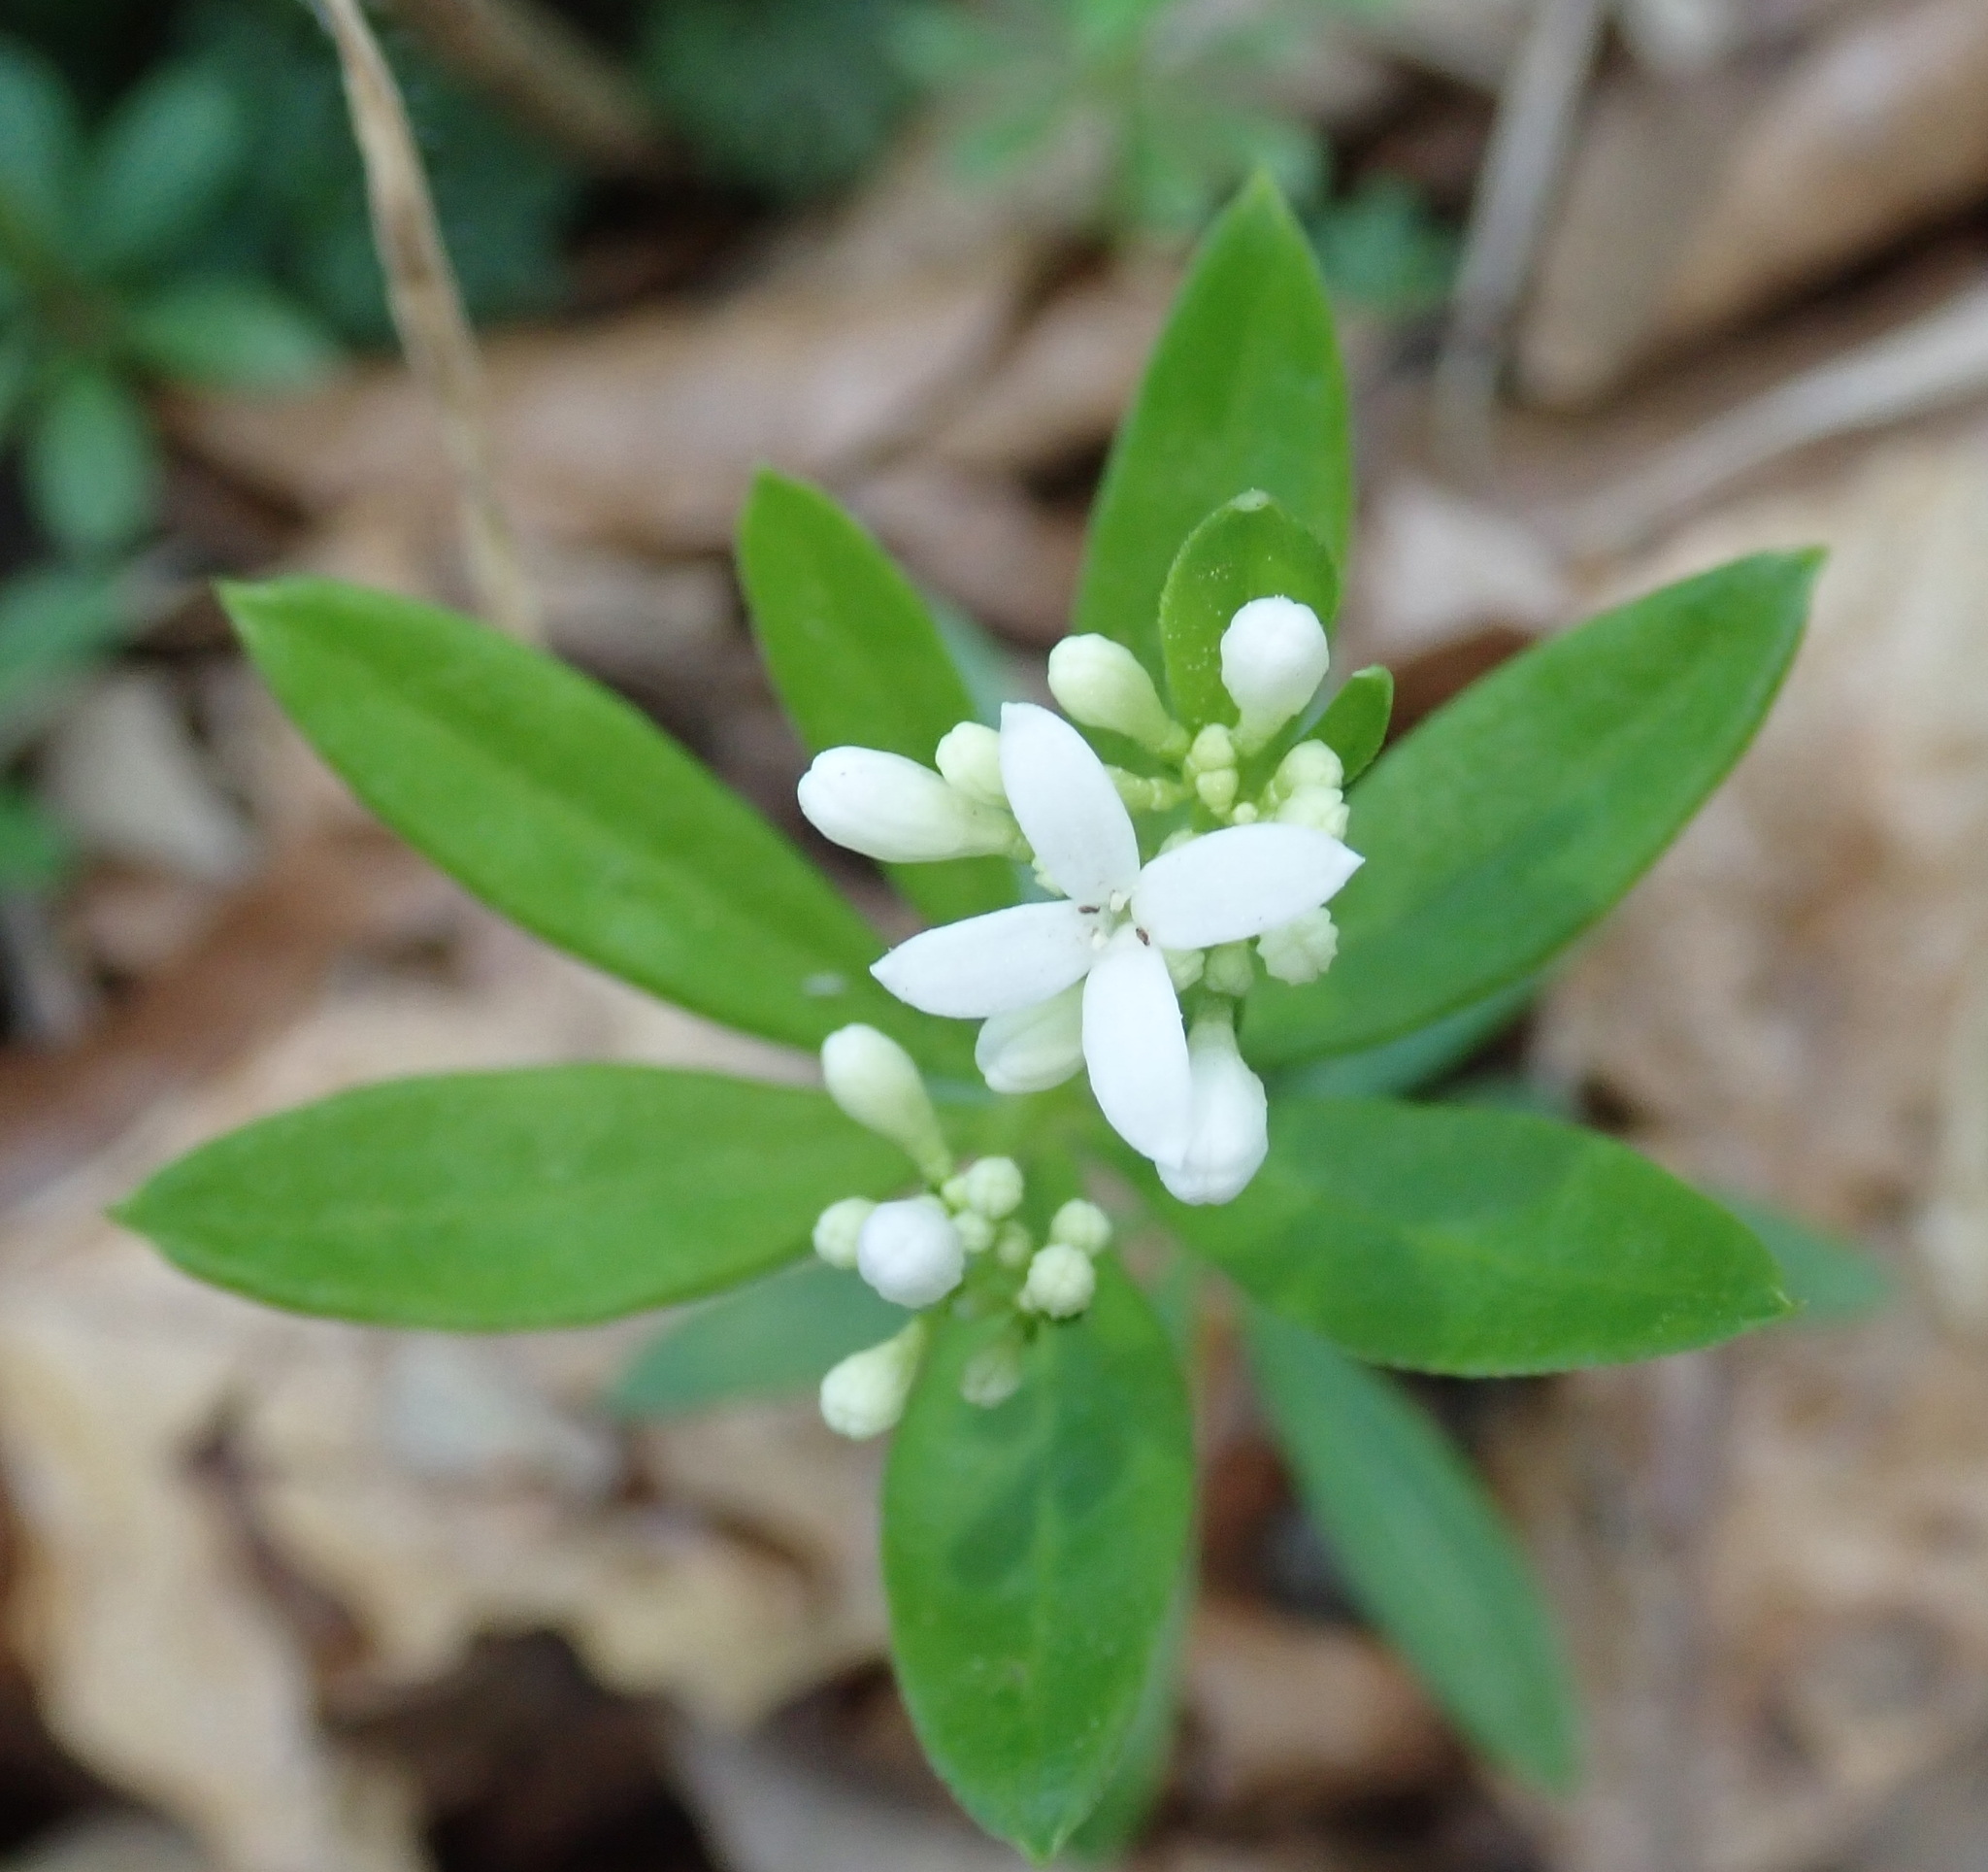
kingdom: Plantae
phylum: Tracheophyta
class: Magnoliopsida
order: Gentianales
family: Rubiaceae
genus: Galium
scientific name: Galium odoratum
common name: Sweet woodruff
